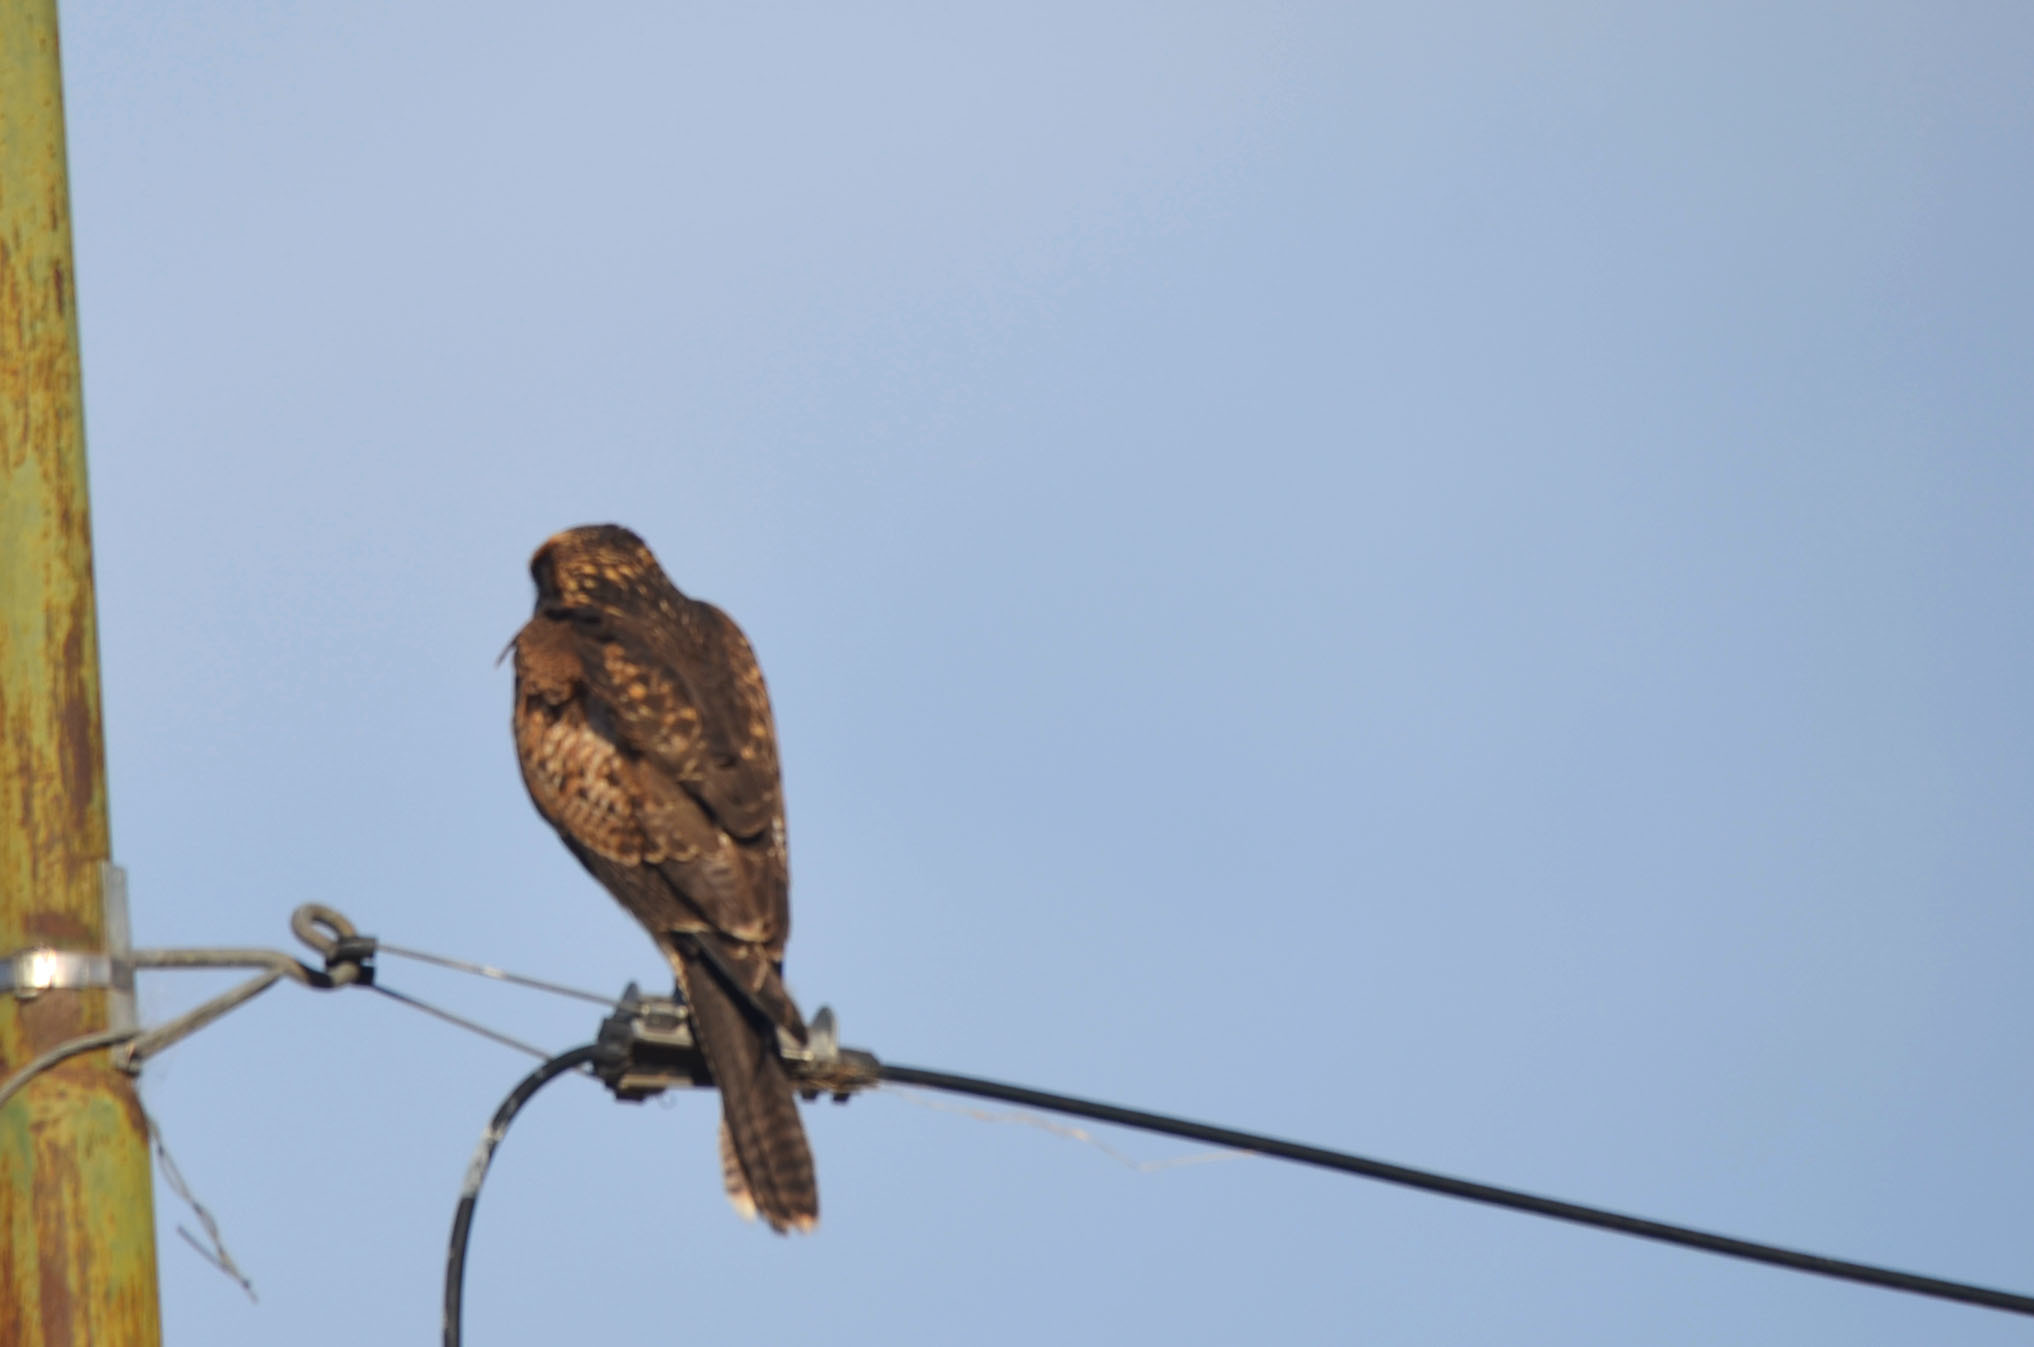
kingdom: Animalia
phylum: Chordata
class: Aves
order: Accipitriformes
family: Accipitridae
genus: Parabuteo
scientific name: Parabuteo unicinctus
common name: Harris's hawk
